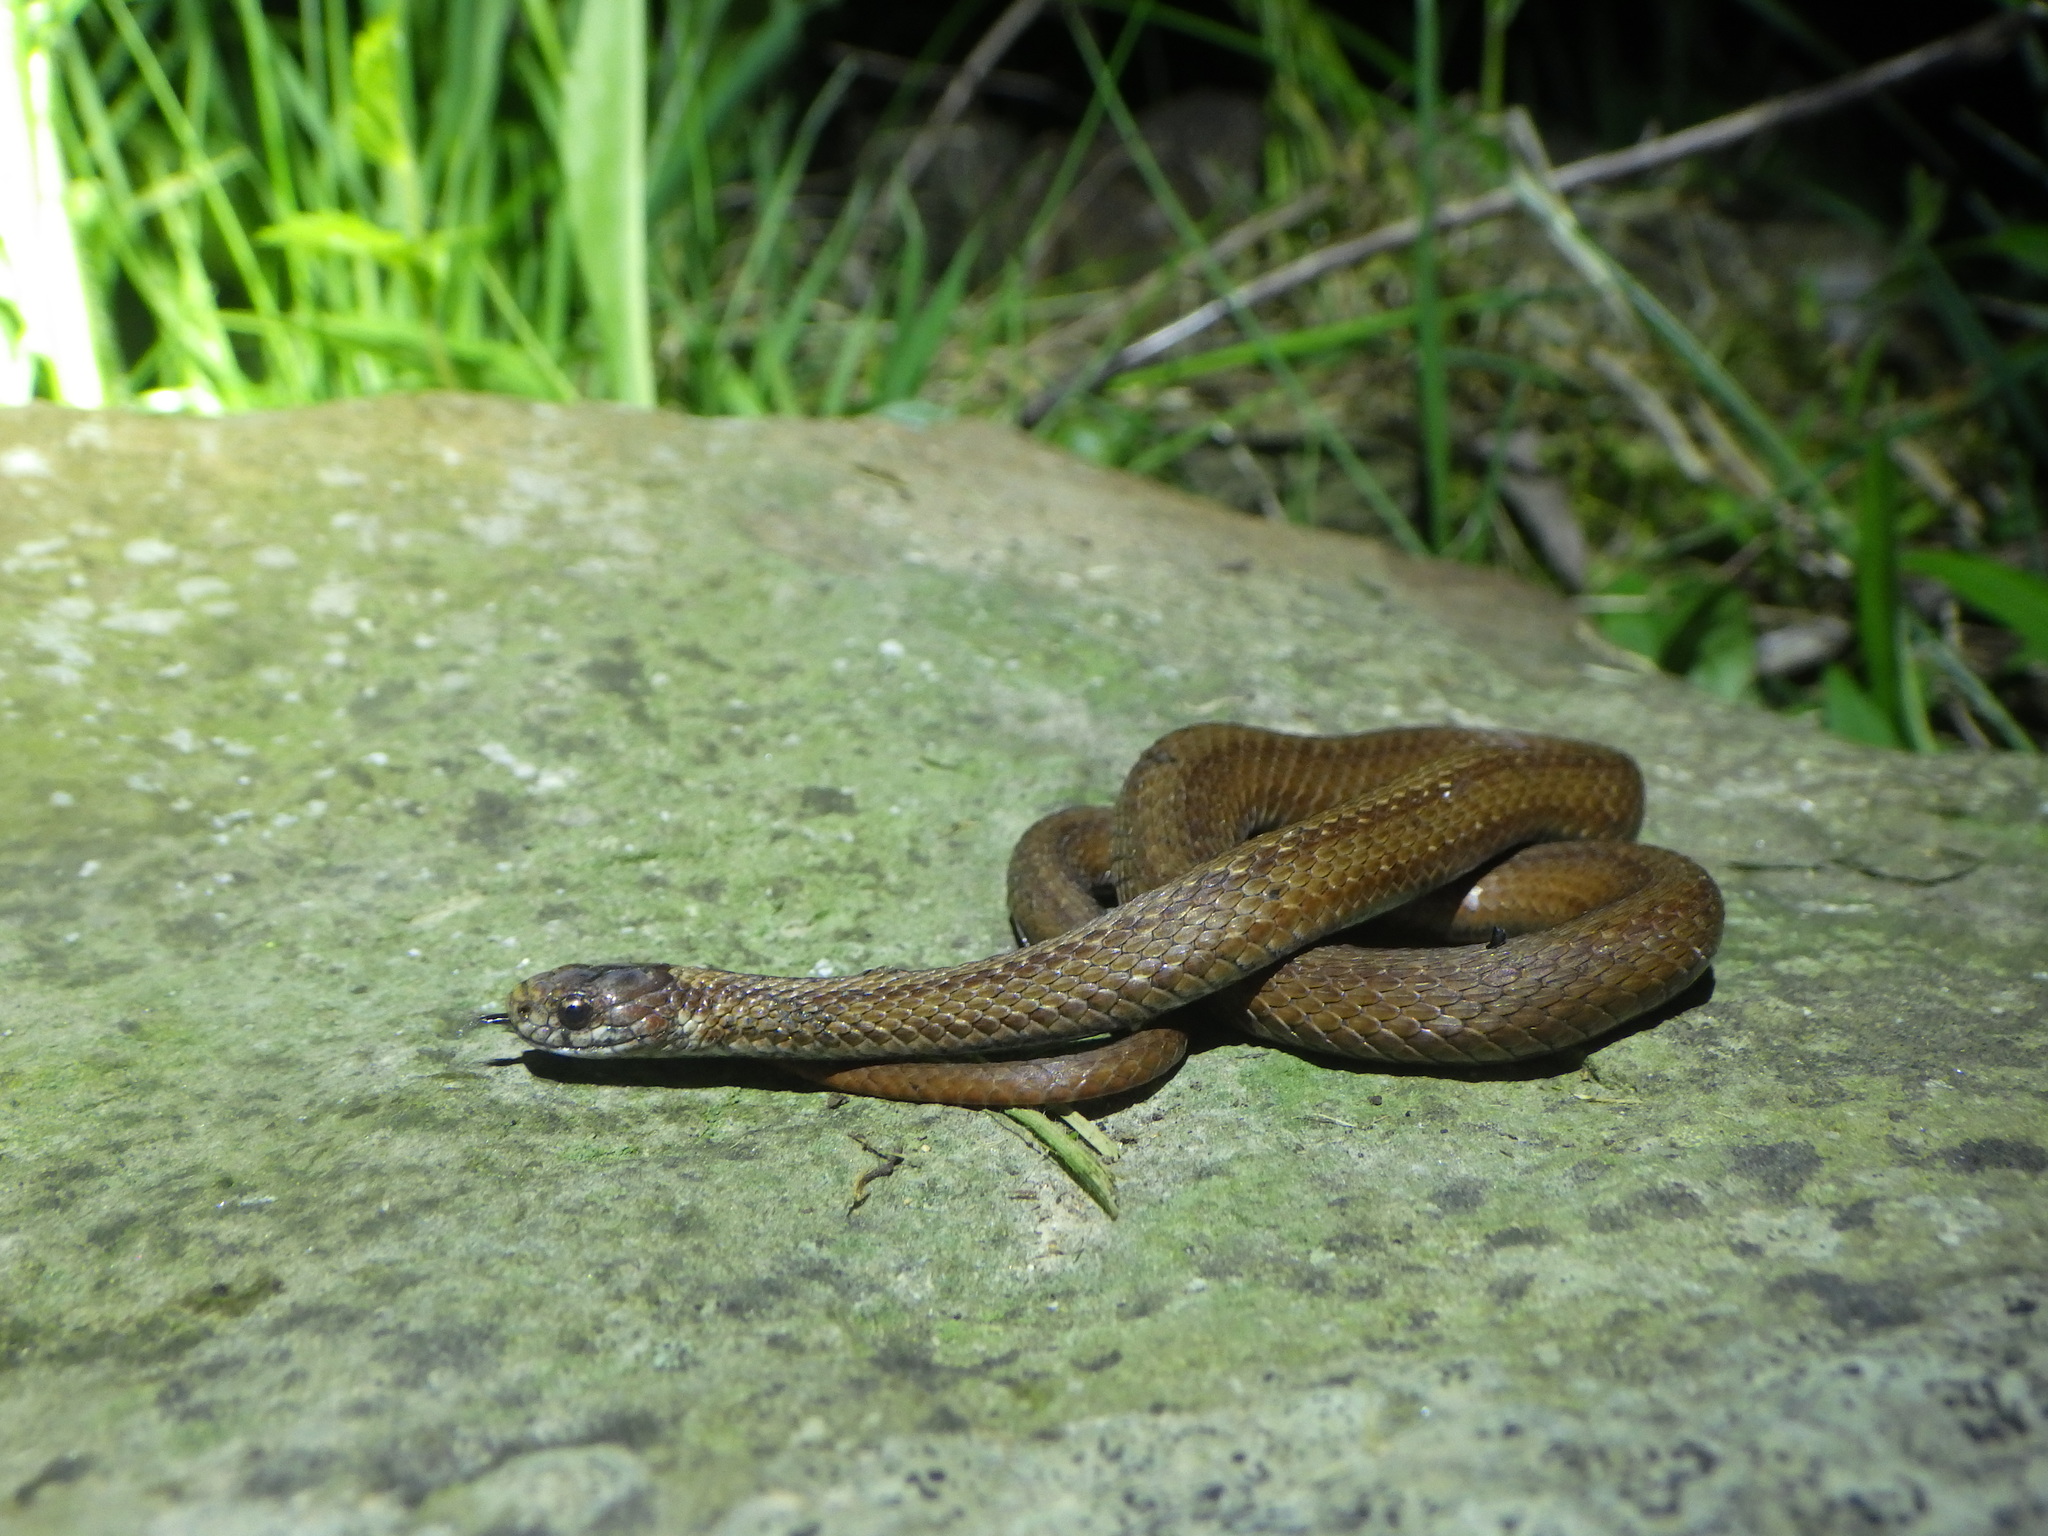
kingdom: Animalia
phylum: Chordata
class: Squamata
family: Colubridae
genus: Storeria
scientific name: Storeria occipitomaculata
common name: Redbelly snake
